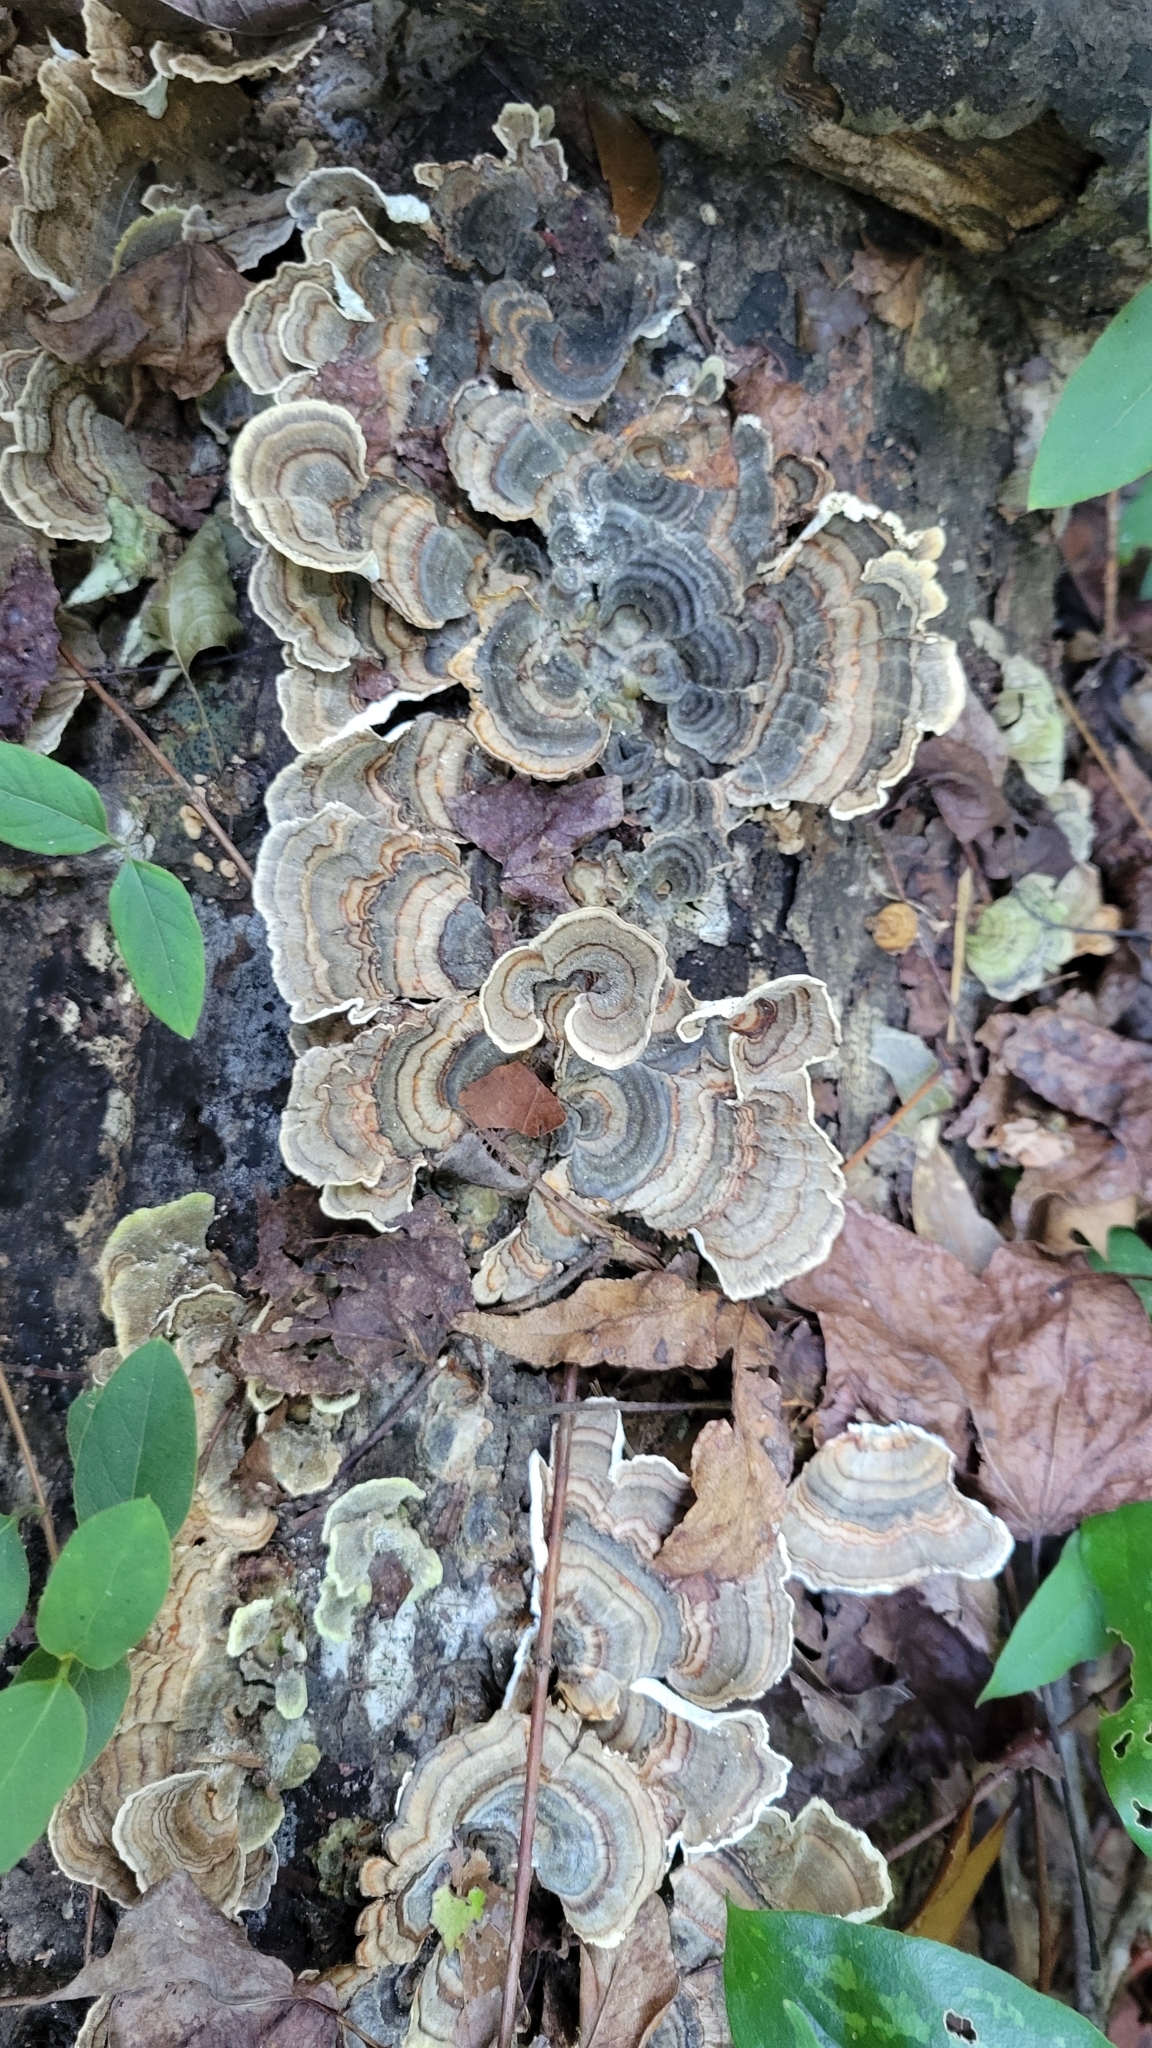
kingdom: Fungi
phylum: Basidiomycota
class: Agaricomycetes
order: Polyporales
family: Polyporaceae
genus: Trametes
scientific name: Trametes versicolor
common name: Turkeytail
